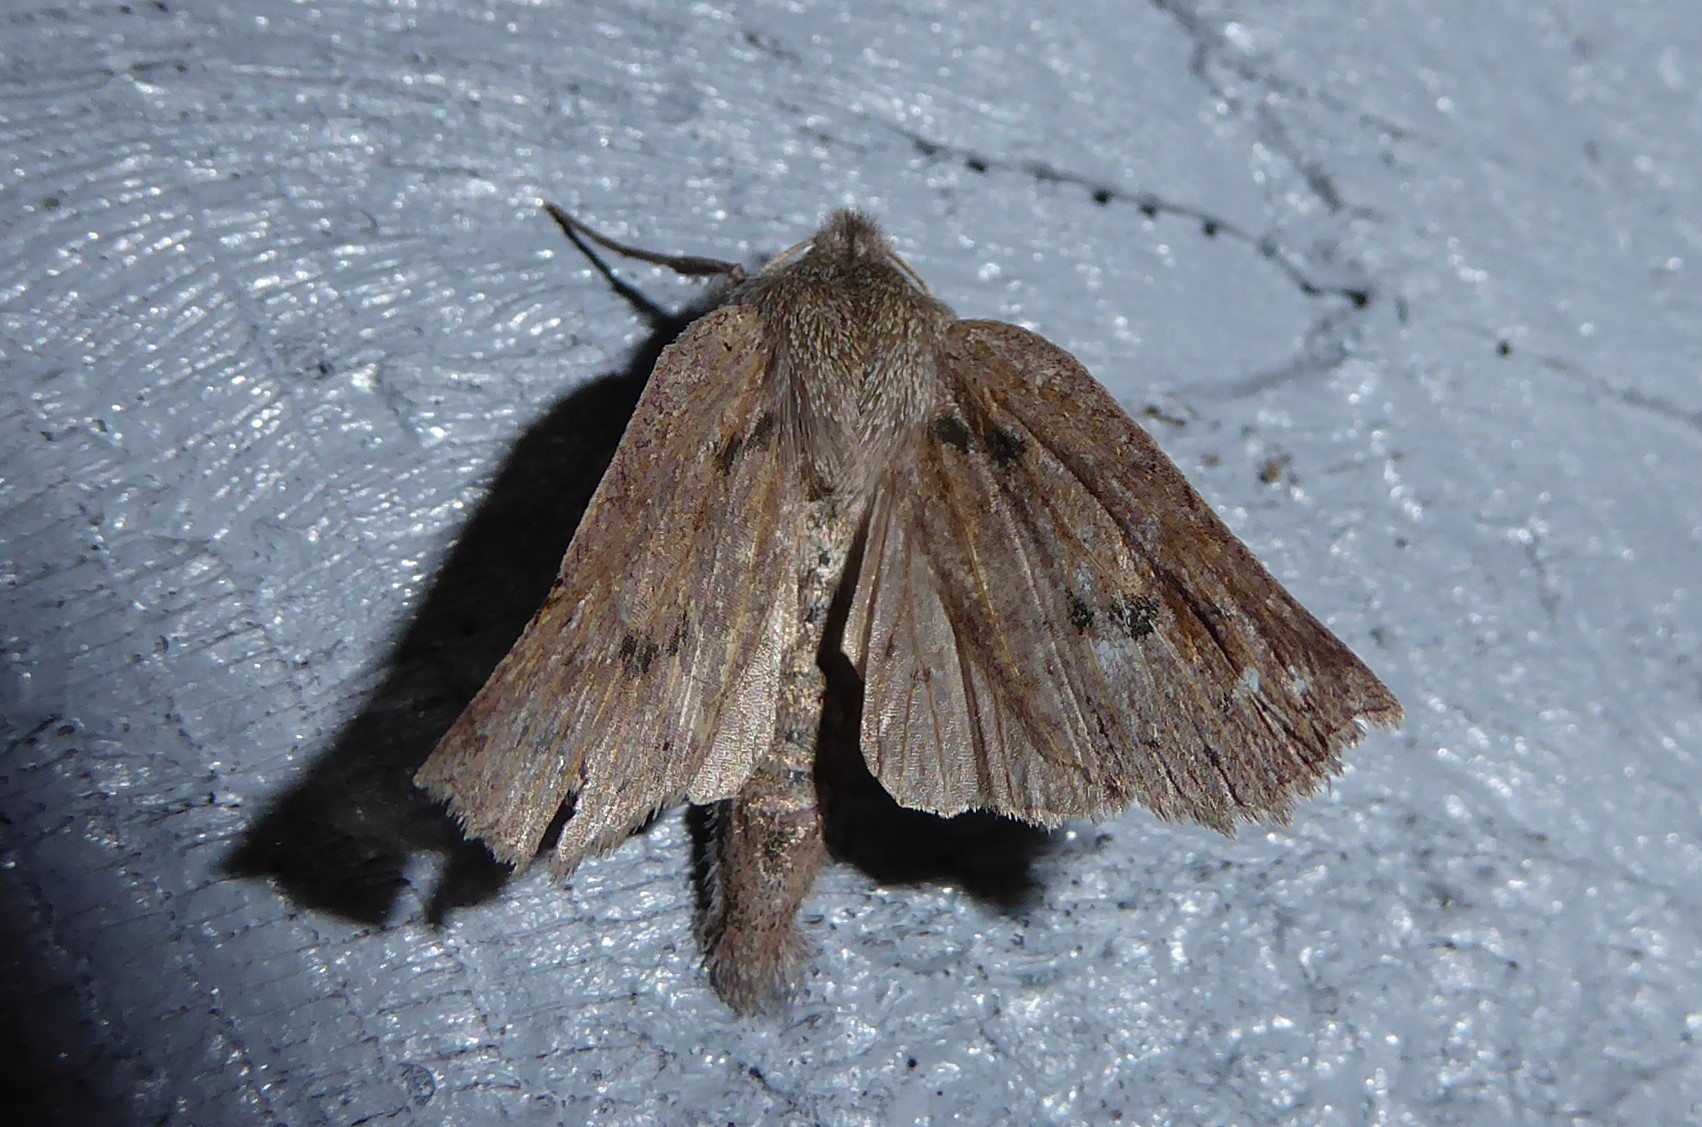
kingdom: Animalia
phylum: Arthropoda
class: Insecta
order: Lepidoptera
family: Geometridae
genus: Declana
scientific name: Declana leptomera
